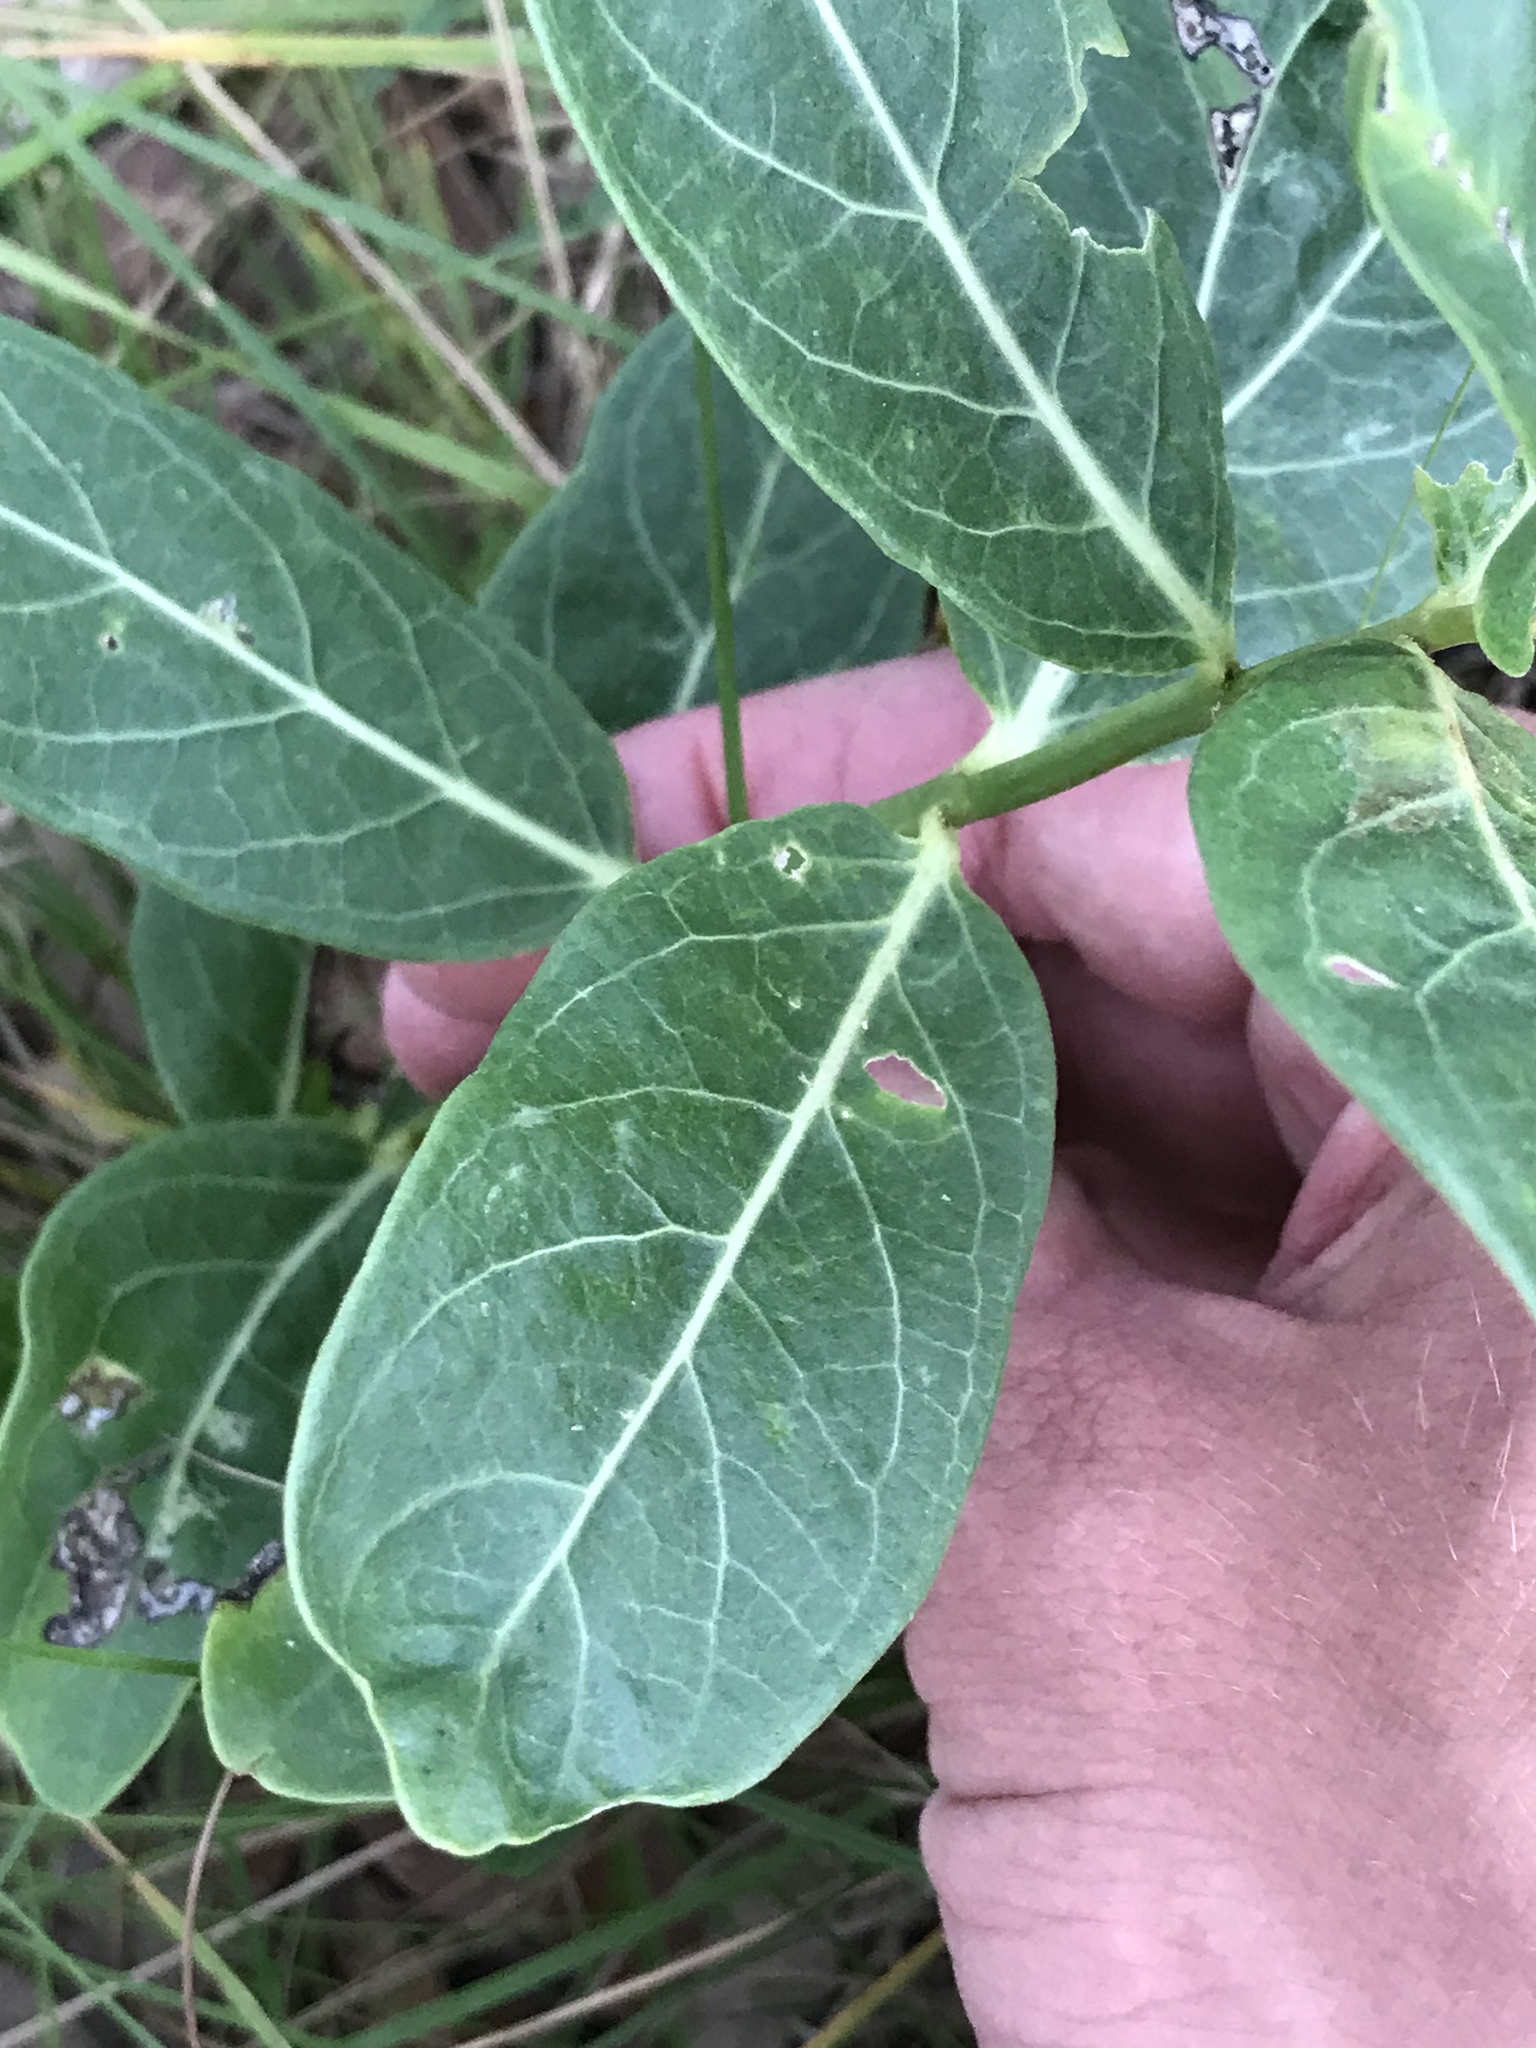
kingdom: Plantae
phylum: Tracheophyta
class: Magnoliopsida
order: Gentianales
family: Apocynaceae
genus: Asclepias
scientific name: Asclepias viridis
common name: Antelope-horns
